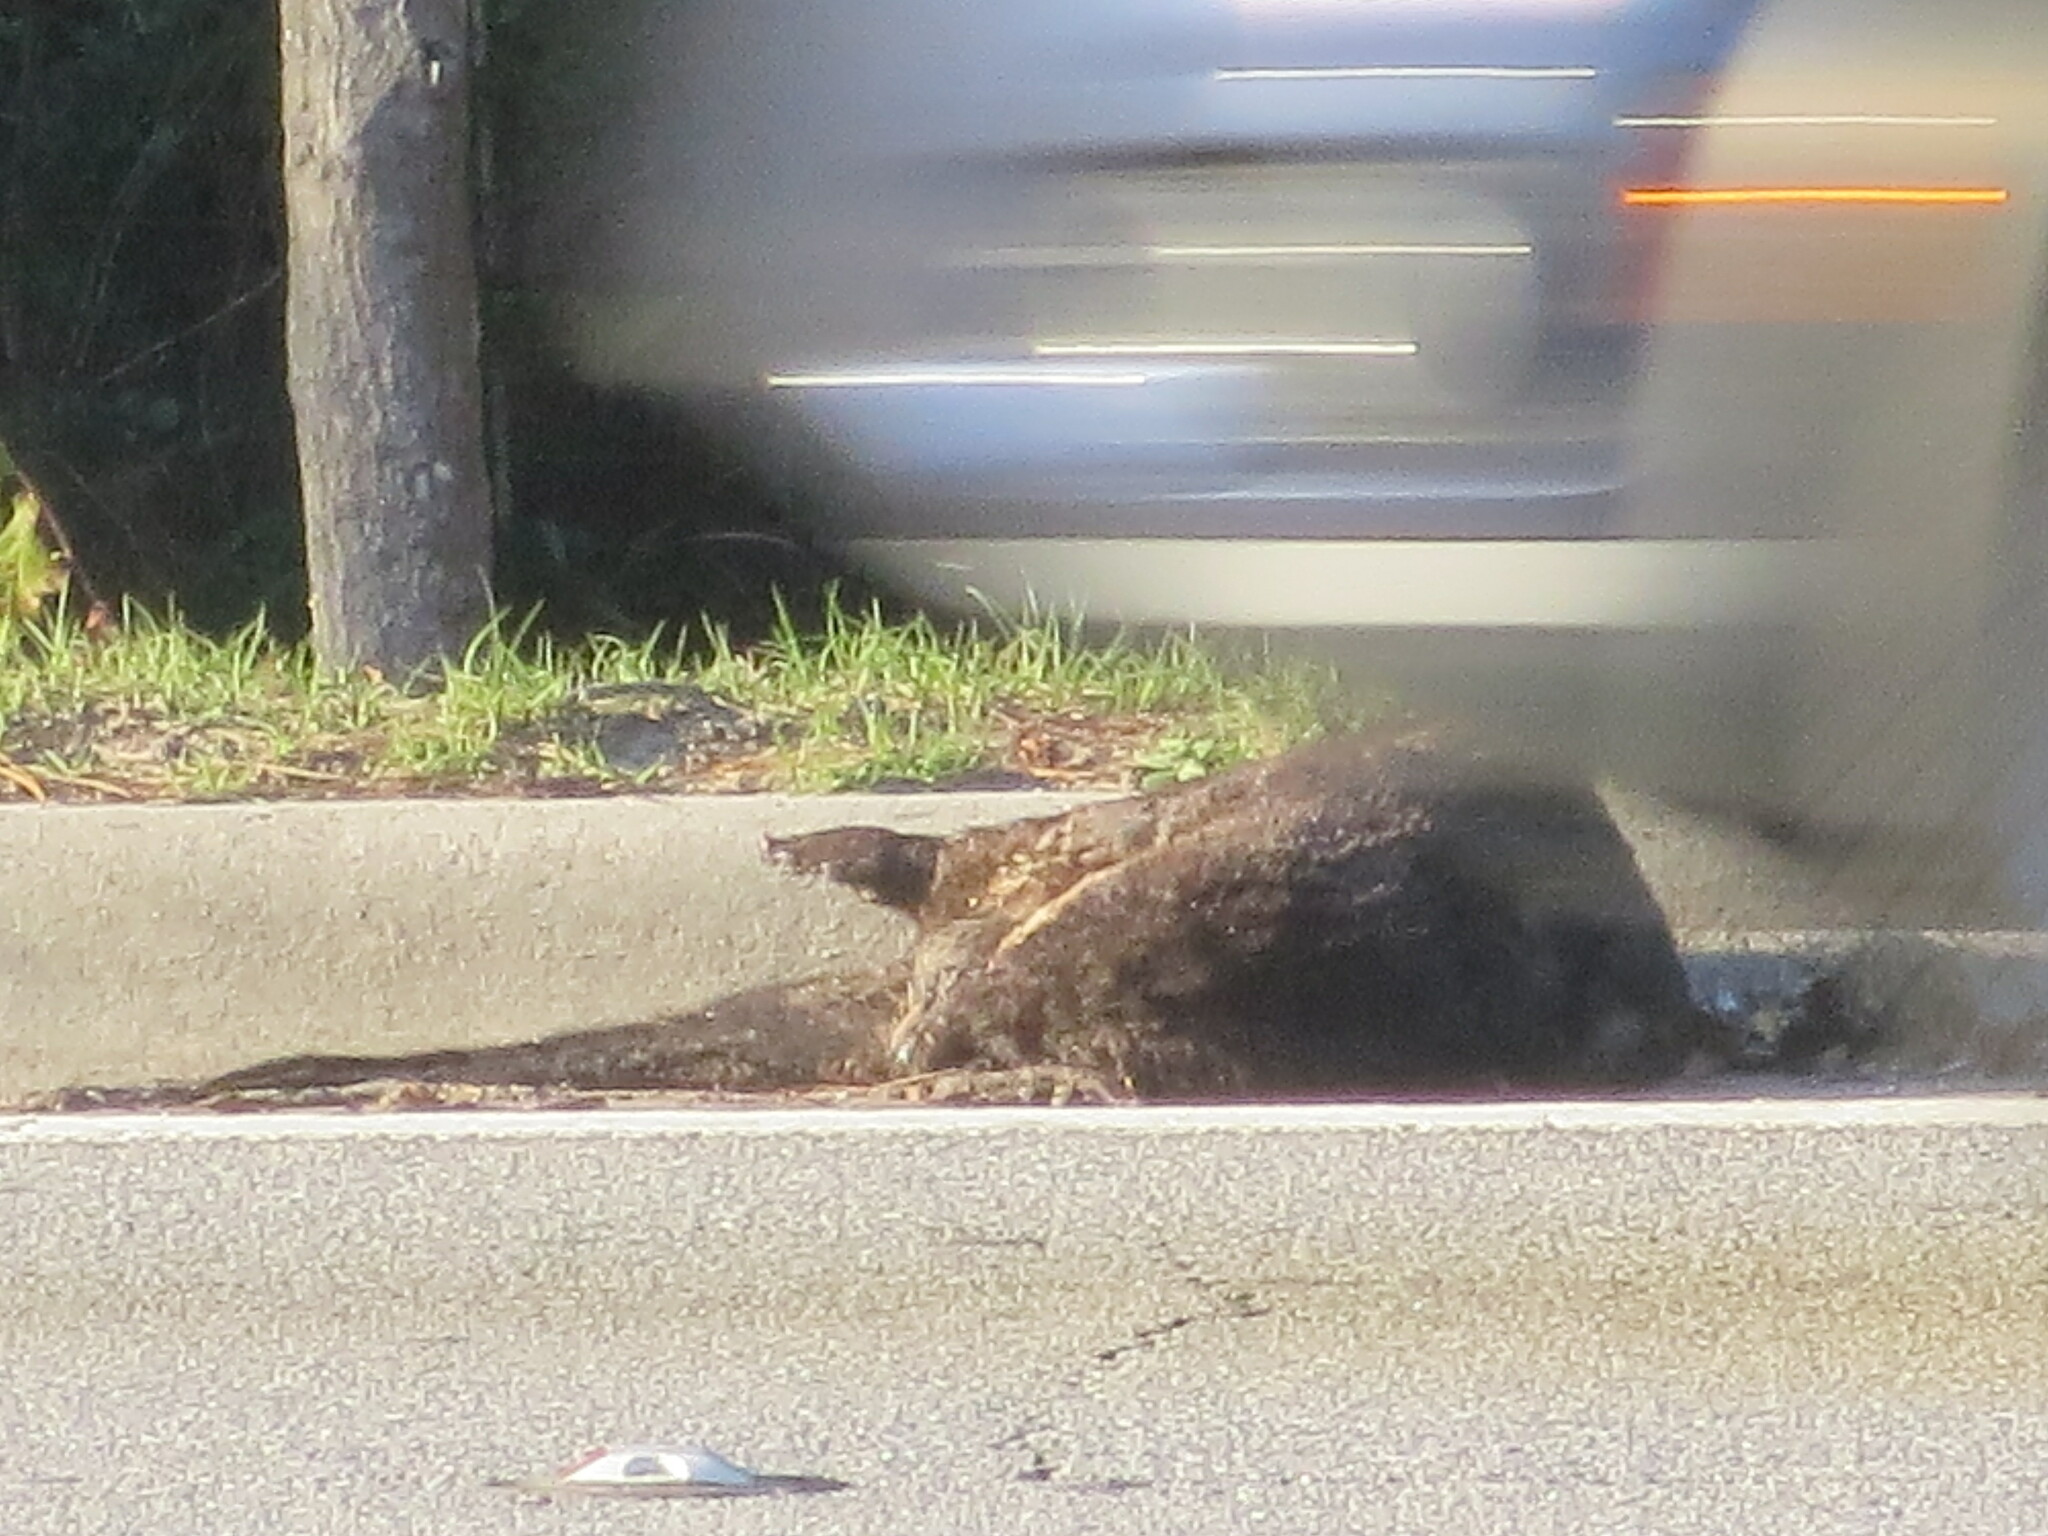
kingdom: Animalia
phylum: Chordata
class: Mammalia
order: Carnivora
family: Mustelidae
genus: Lontra
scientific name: Lontra canadensis
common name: North american river otter
